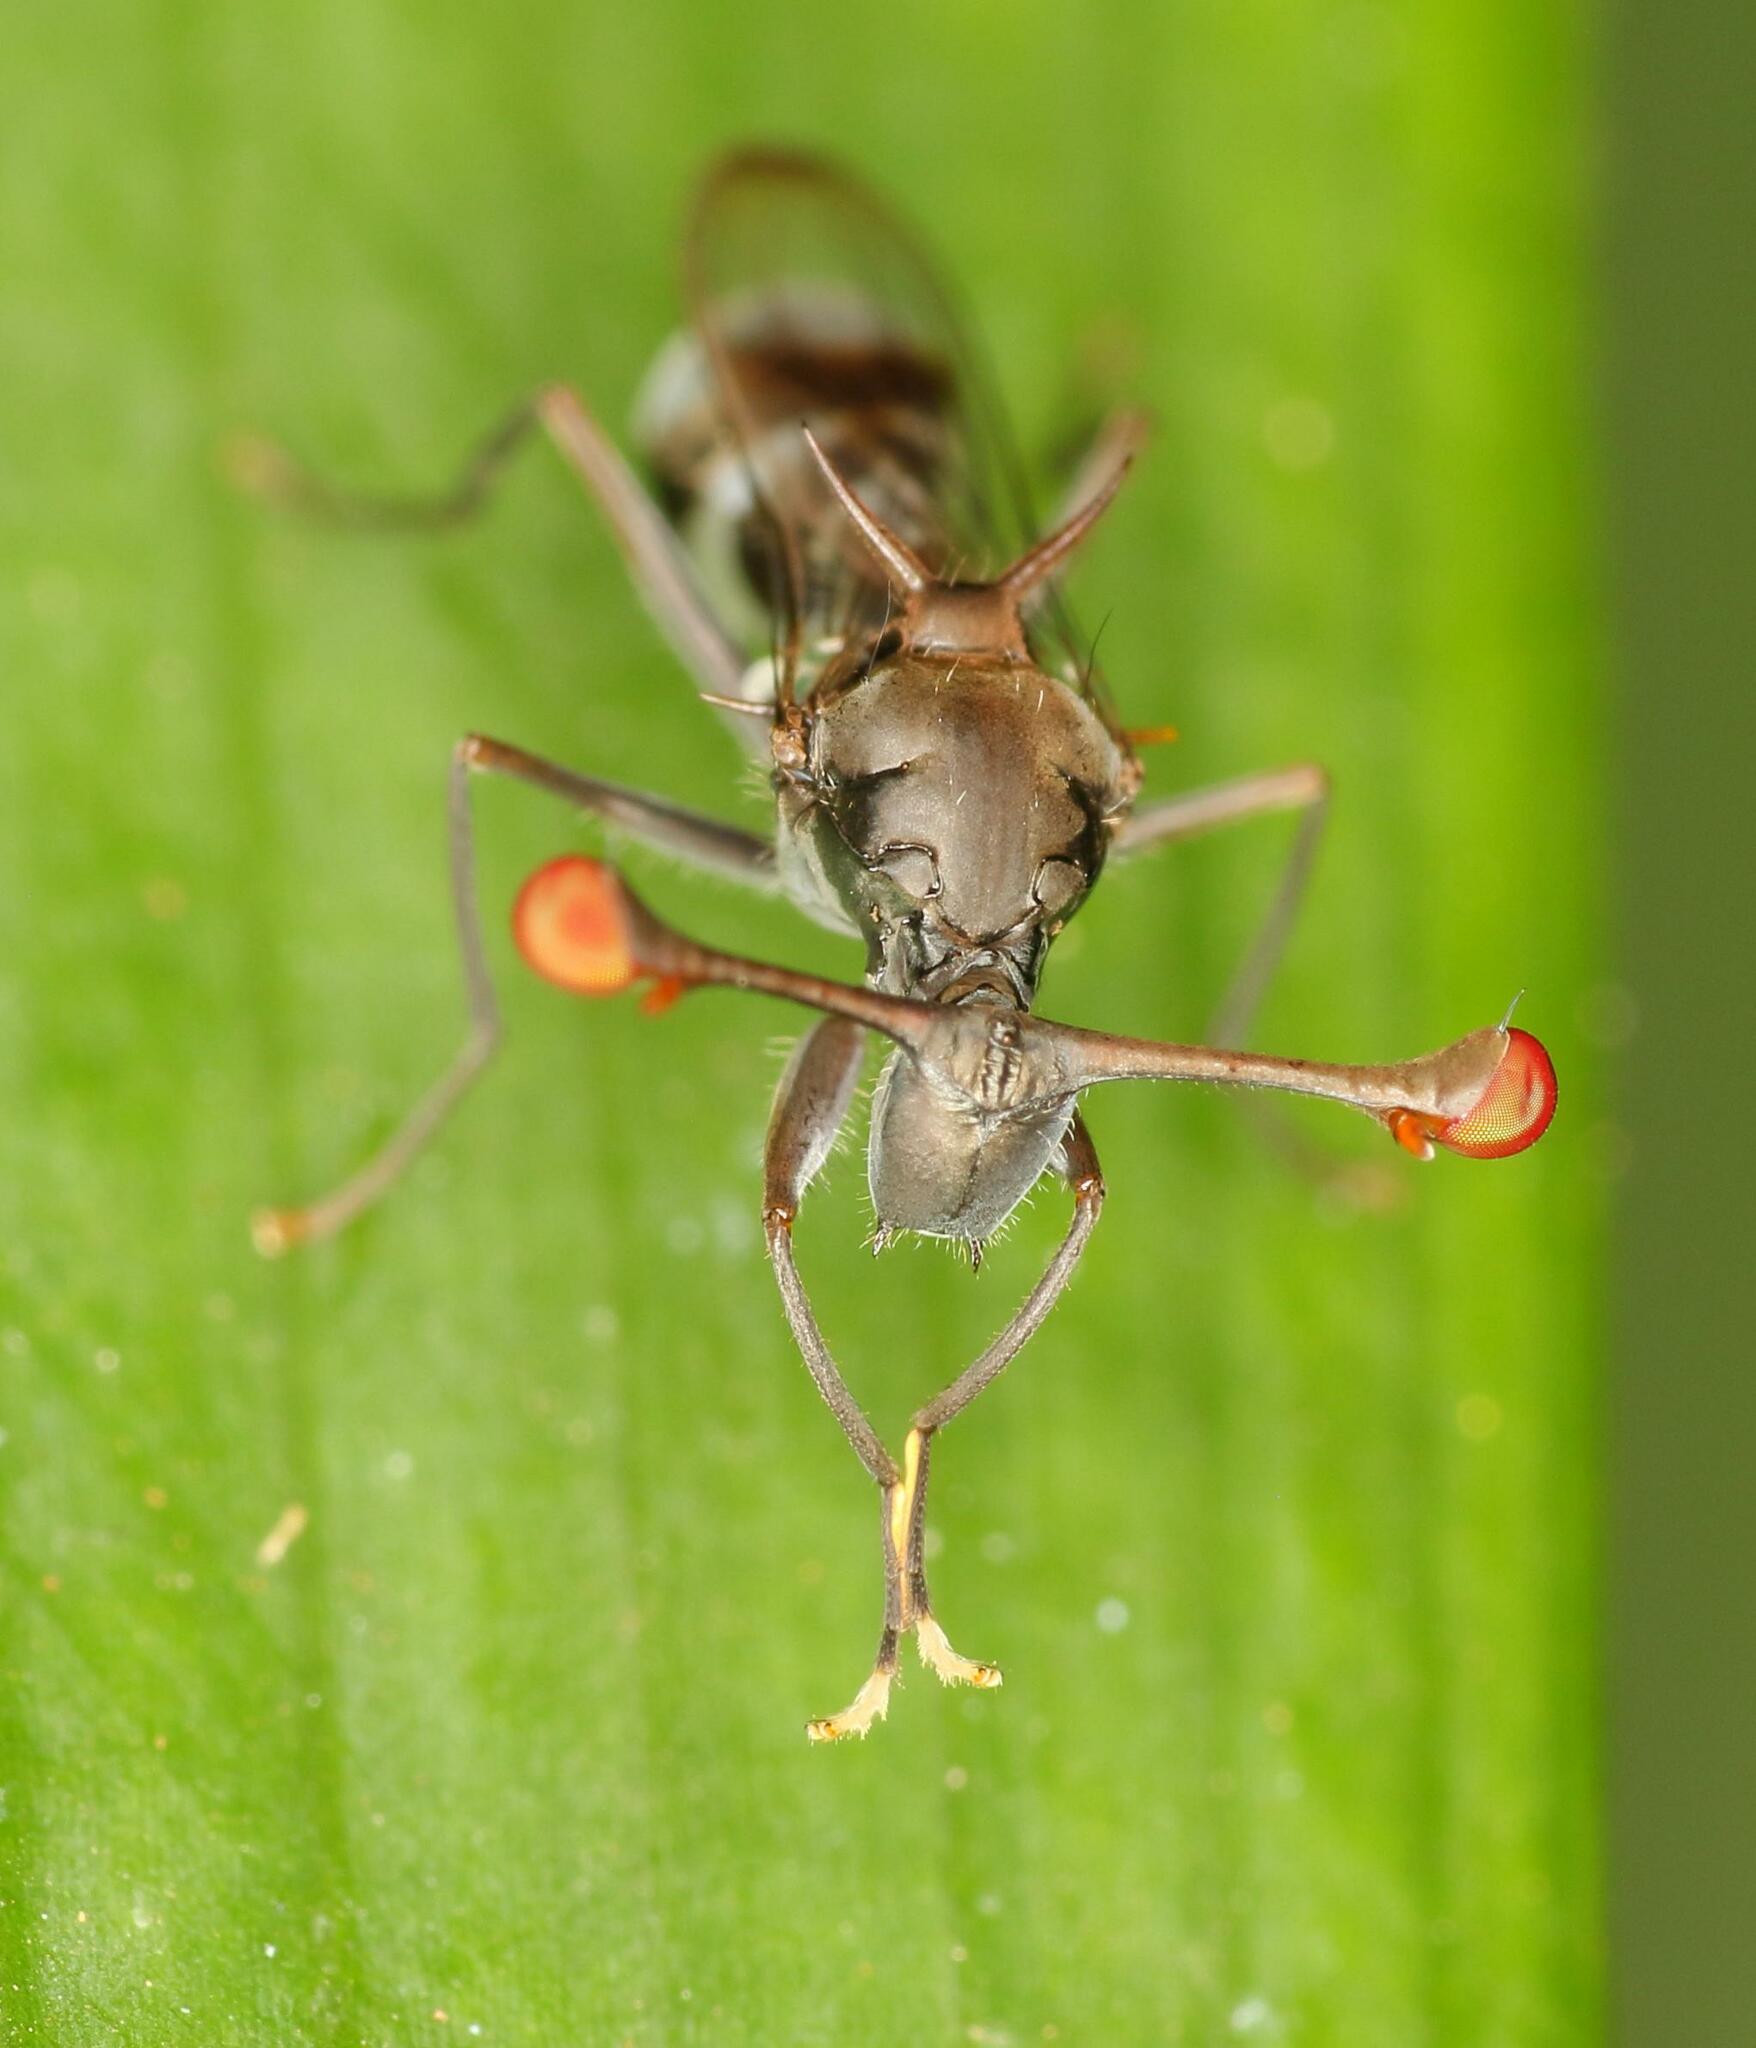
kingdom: Animalia
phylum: Arthropoda
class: Insecta
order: Diptera
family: Diopsidae
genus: Chaetodiopsis
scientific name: Chaetodiopsis
